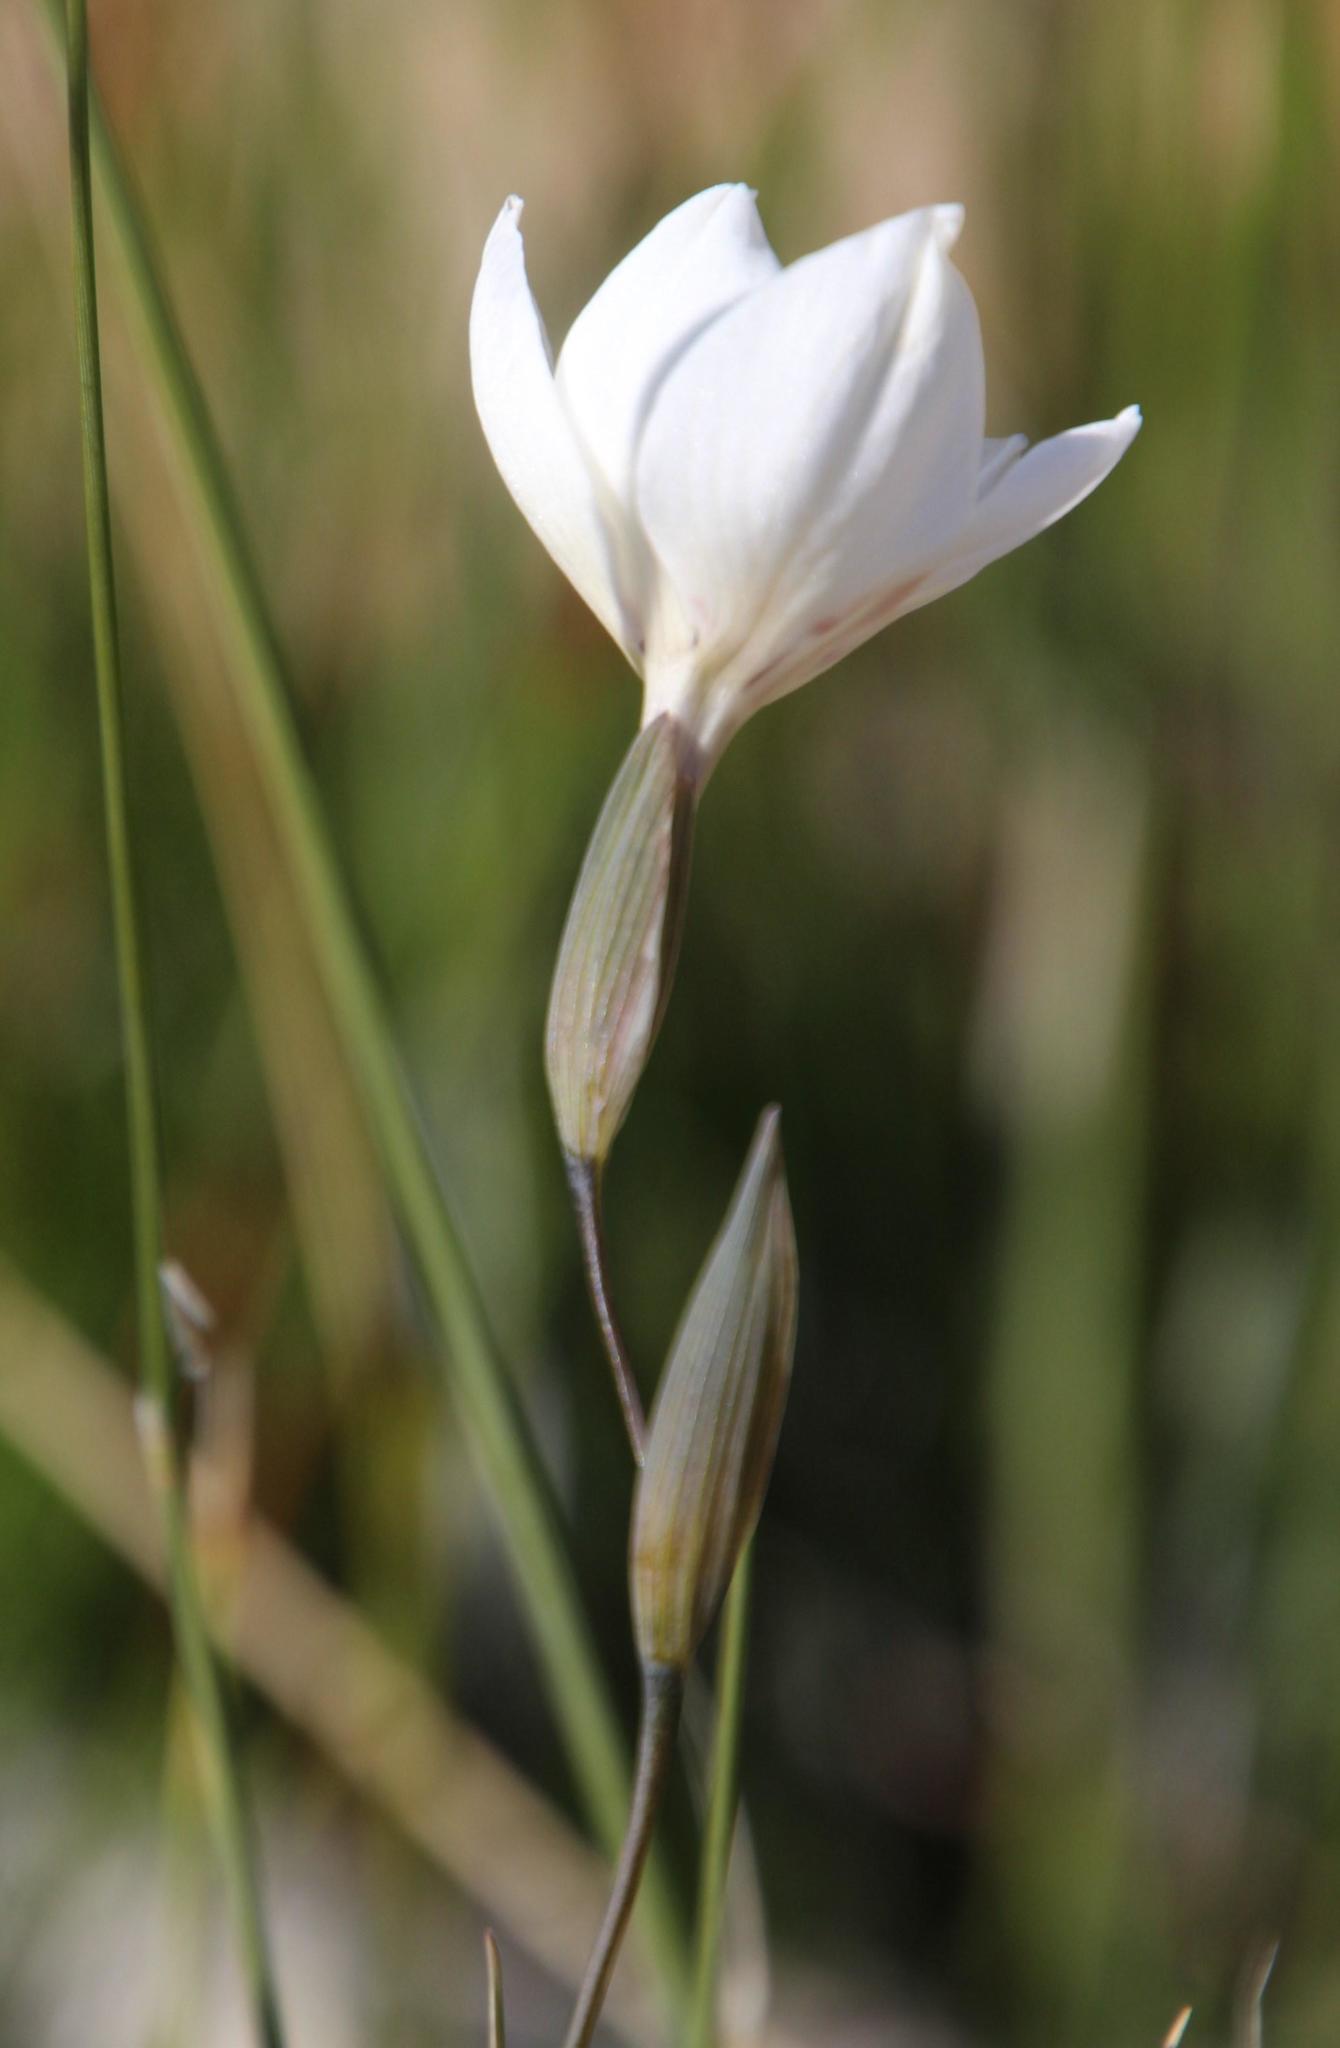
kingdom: Plantae
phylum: Tracheophyta
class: Liliopsida
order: Asparagales
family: Iridaceae
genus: Gladiolus
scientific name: Gladiolus debilis
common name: Painted-lady
